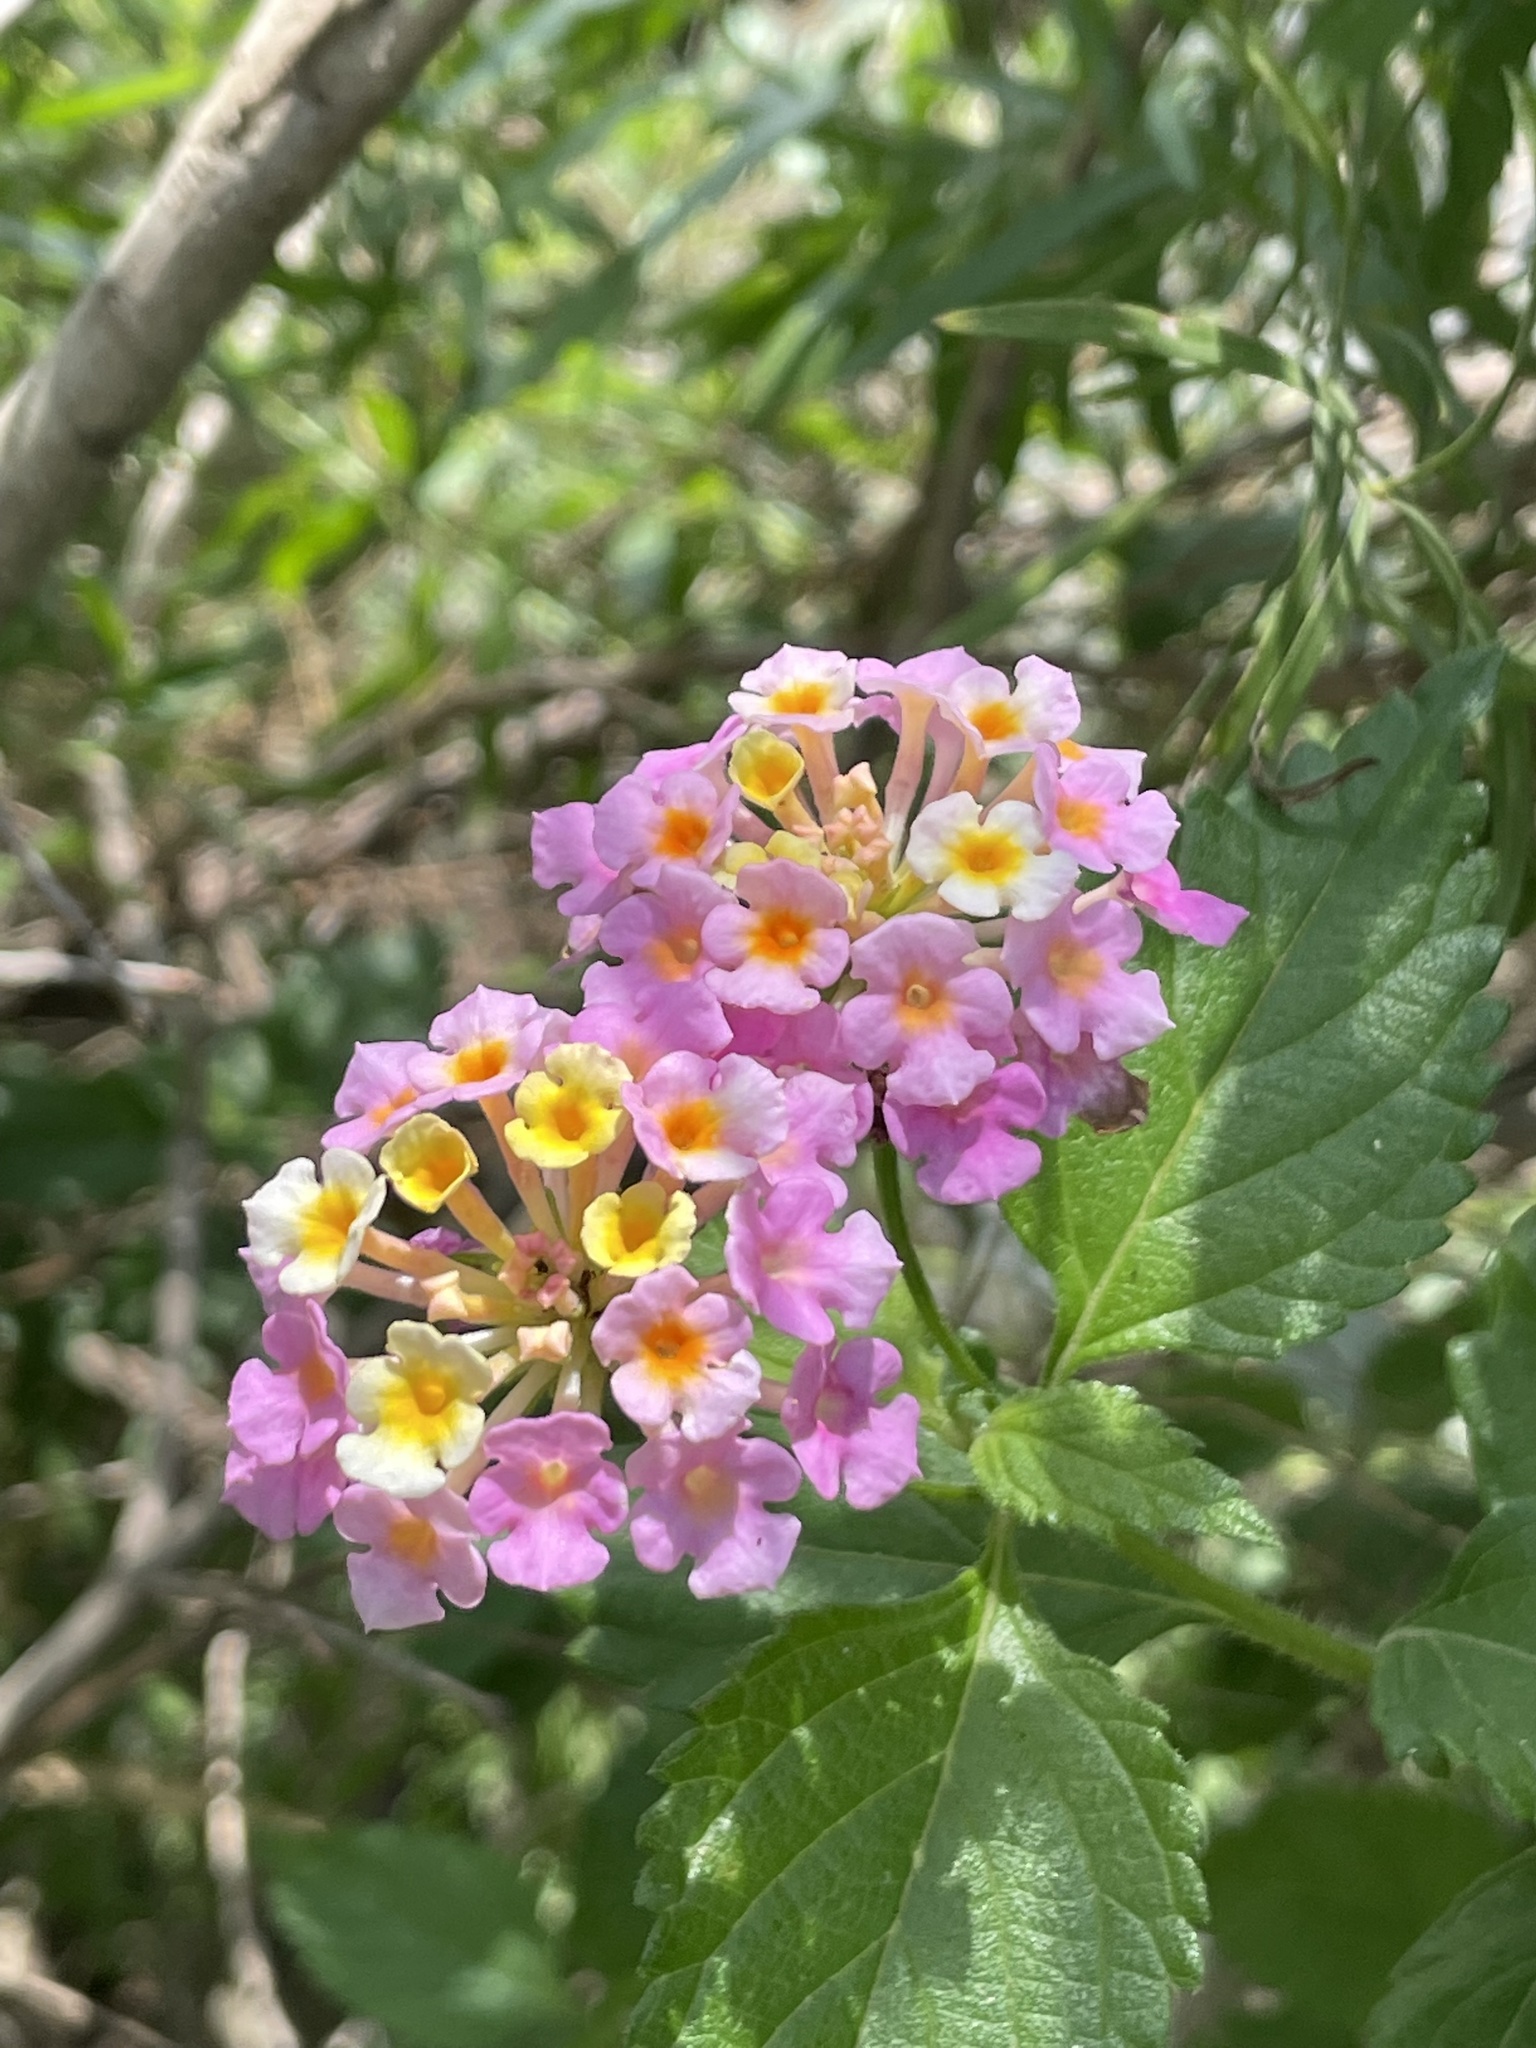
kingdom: Plantae
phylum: Tracheophyta
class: Magnoliopsida
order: Lamiales
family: Verbenaceae
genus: Lantana
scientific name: Lantana strigocamara
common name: Lantana
